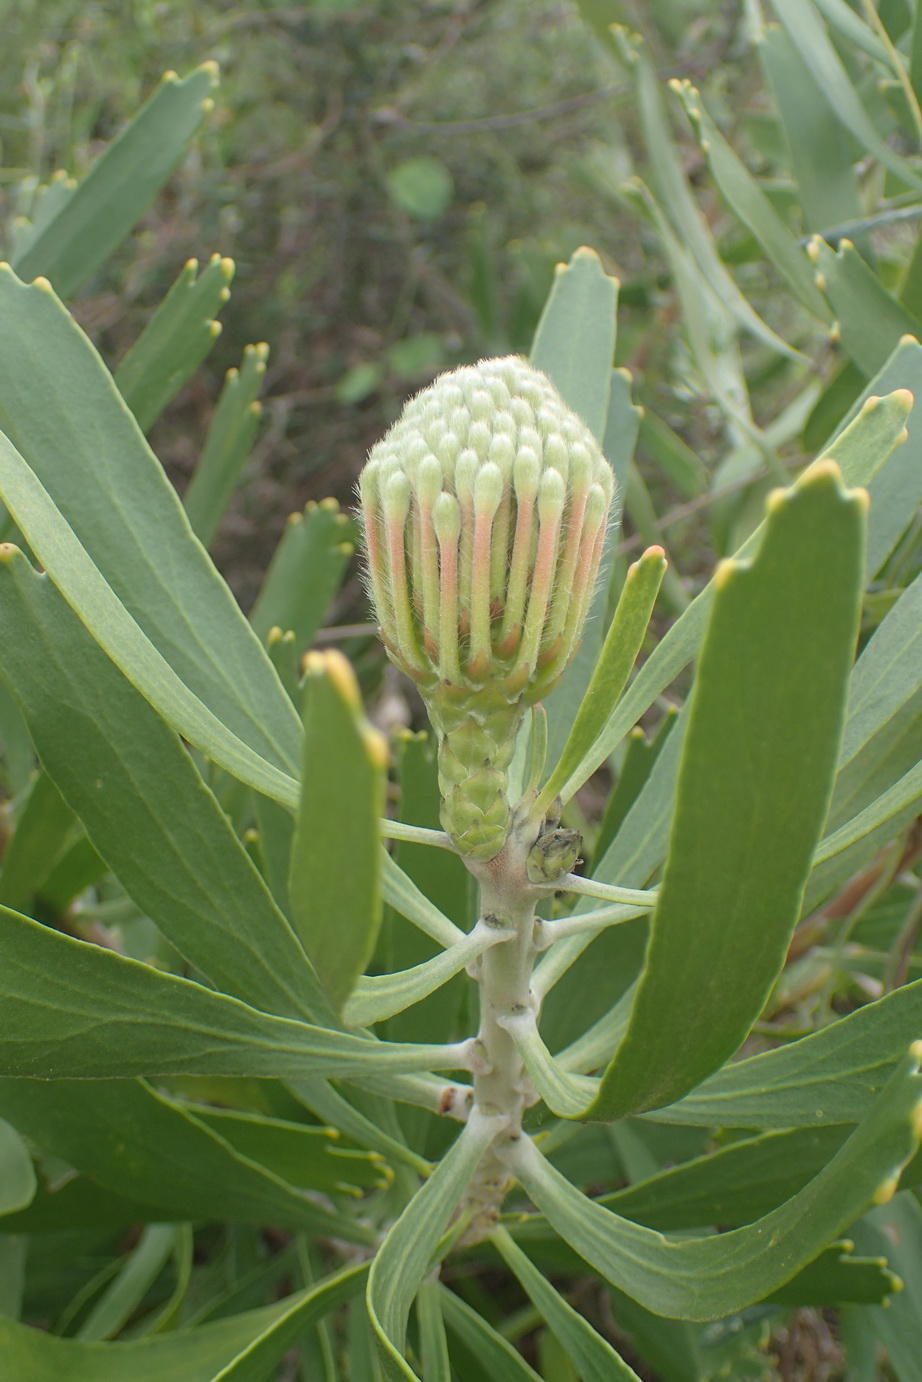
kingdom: Plantae
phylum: Tracheophyta
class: Magnoliopsida
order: Proteales
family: Proteaceae
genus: Leucospermum
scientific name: Leucospermum cuneiforme
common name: Common pincushion
